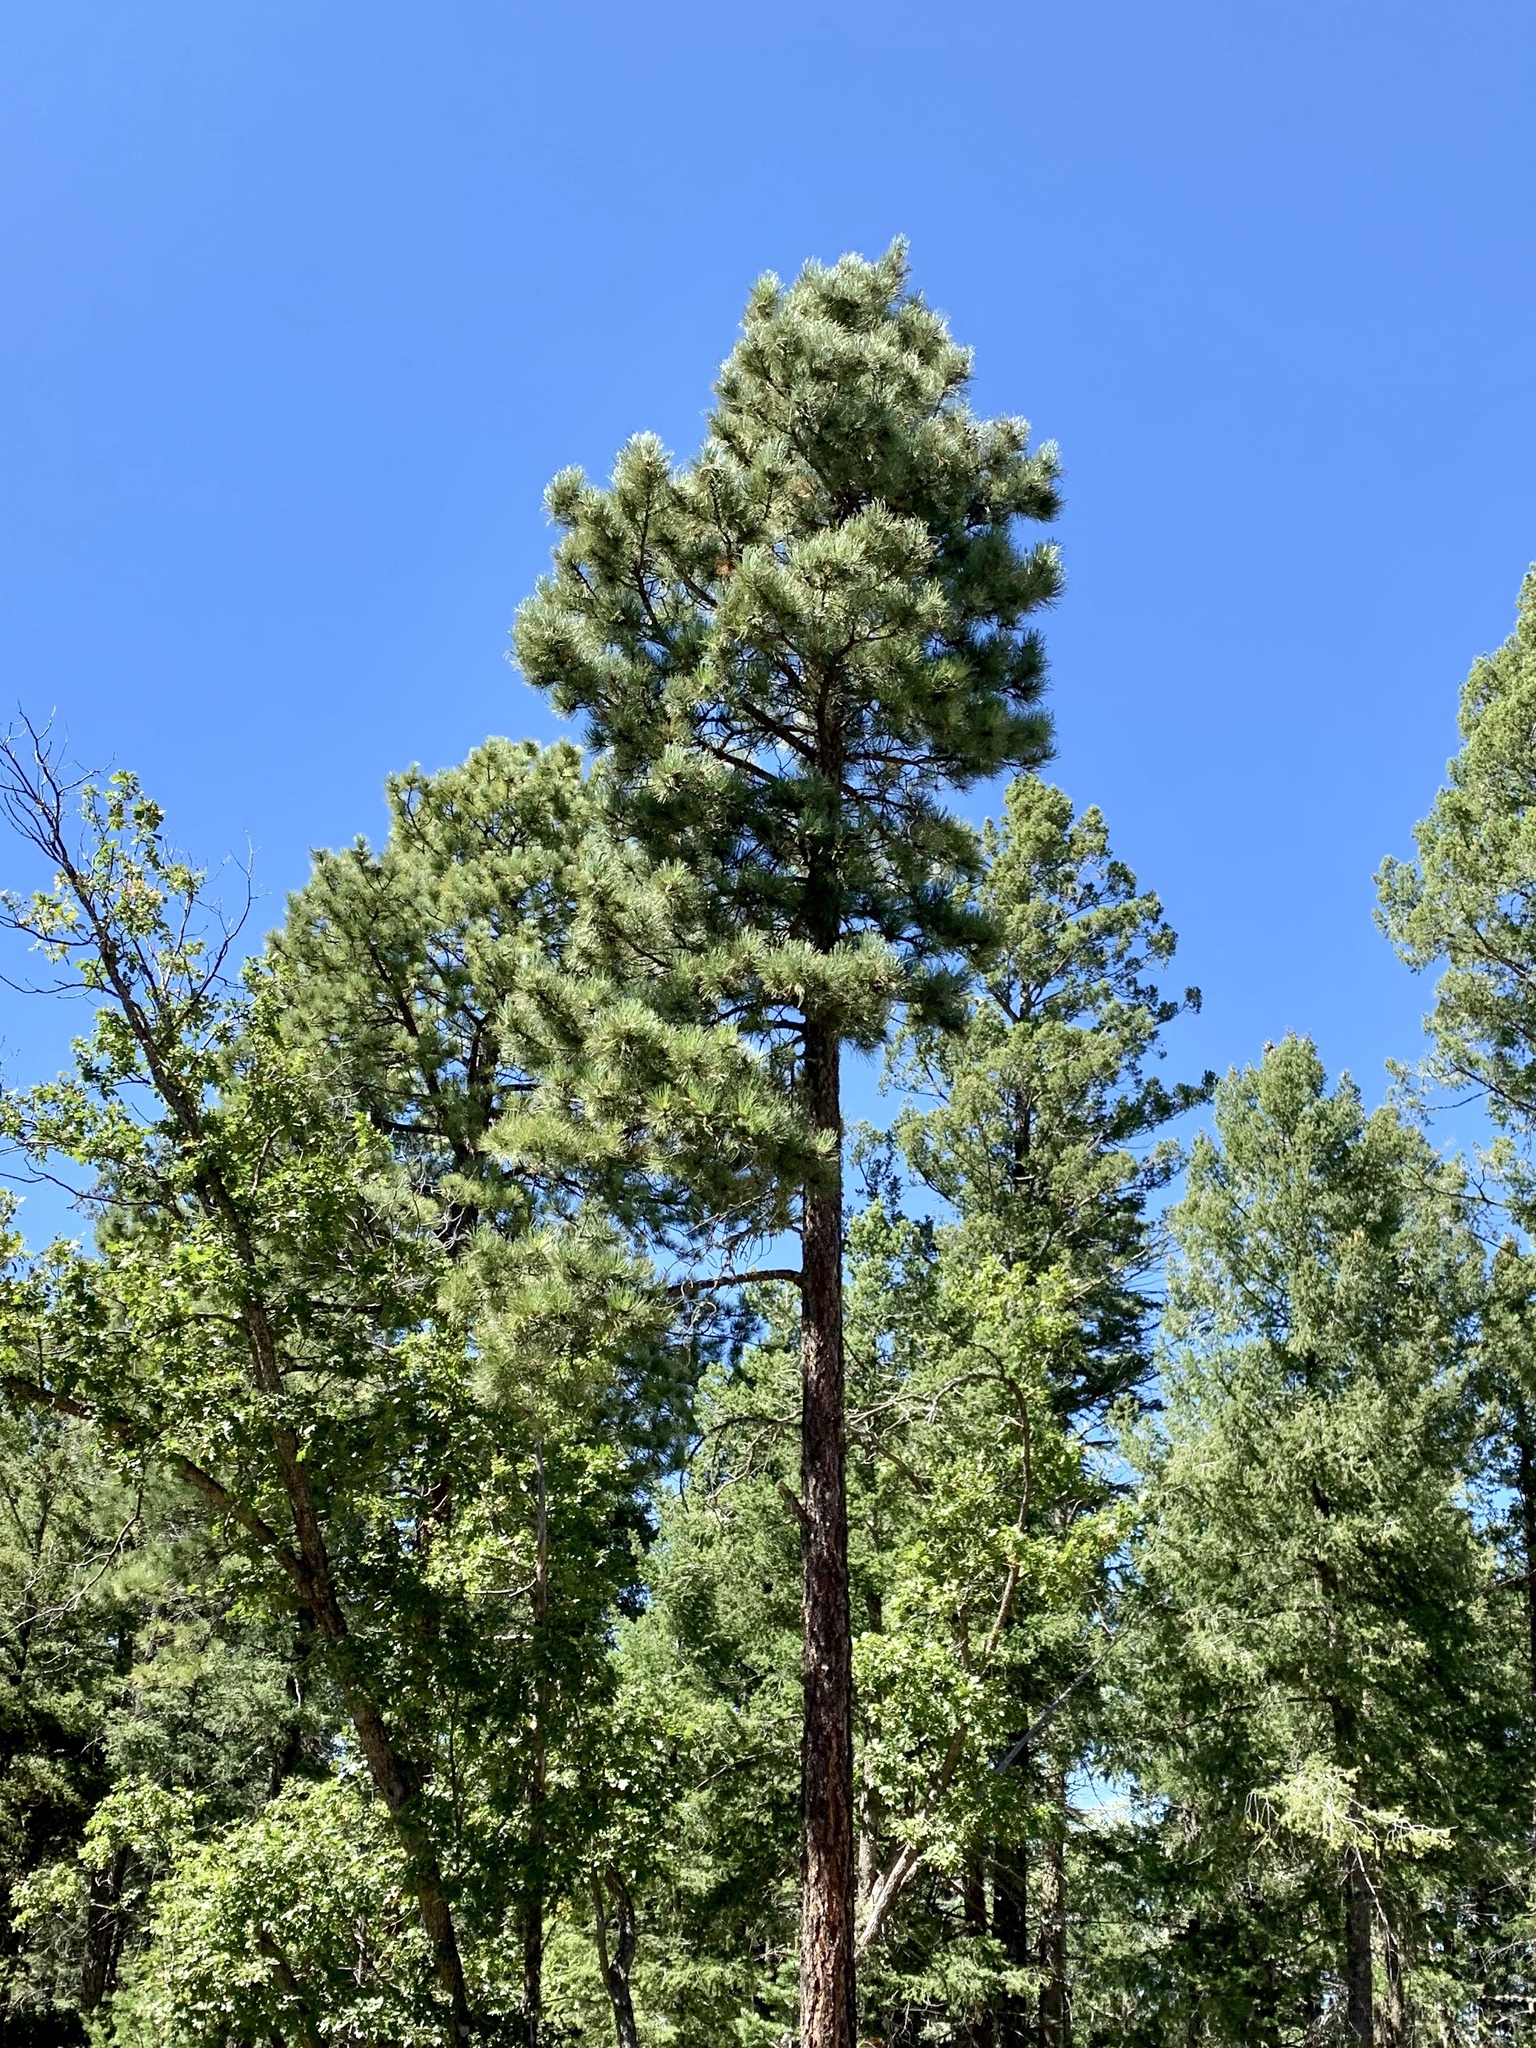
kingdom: Plantae
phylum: Tracheophyta
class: Pinopsida
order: Pinales
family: Pinaceae
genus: Pinus
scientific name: Pinus ponderosa
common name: Western yellow-pine
